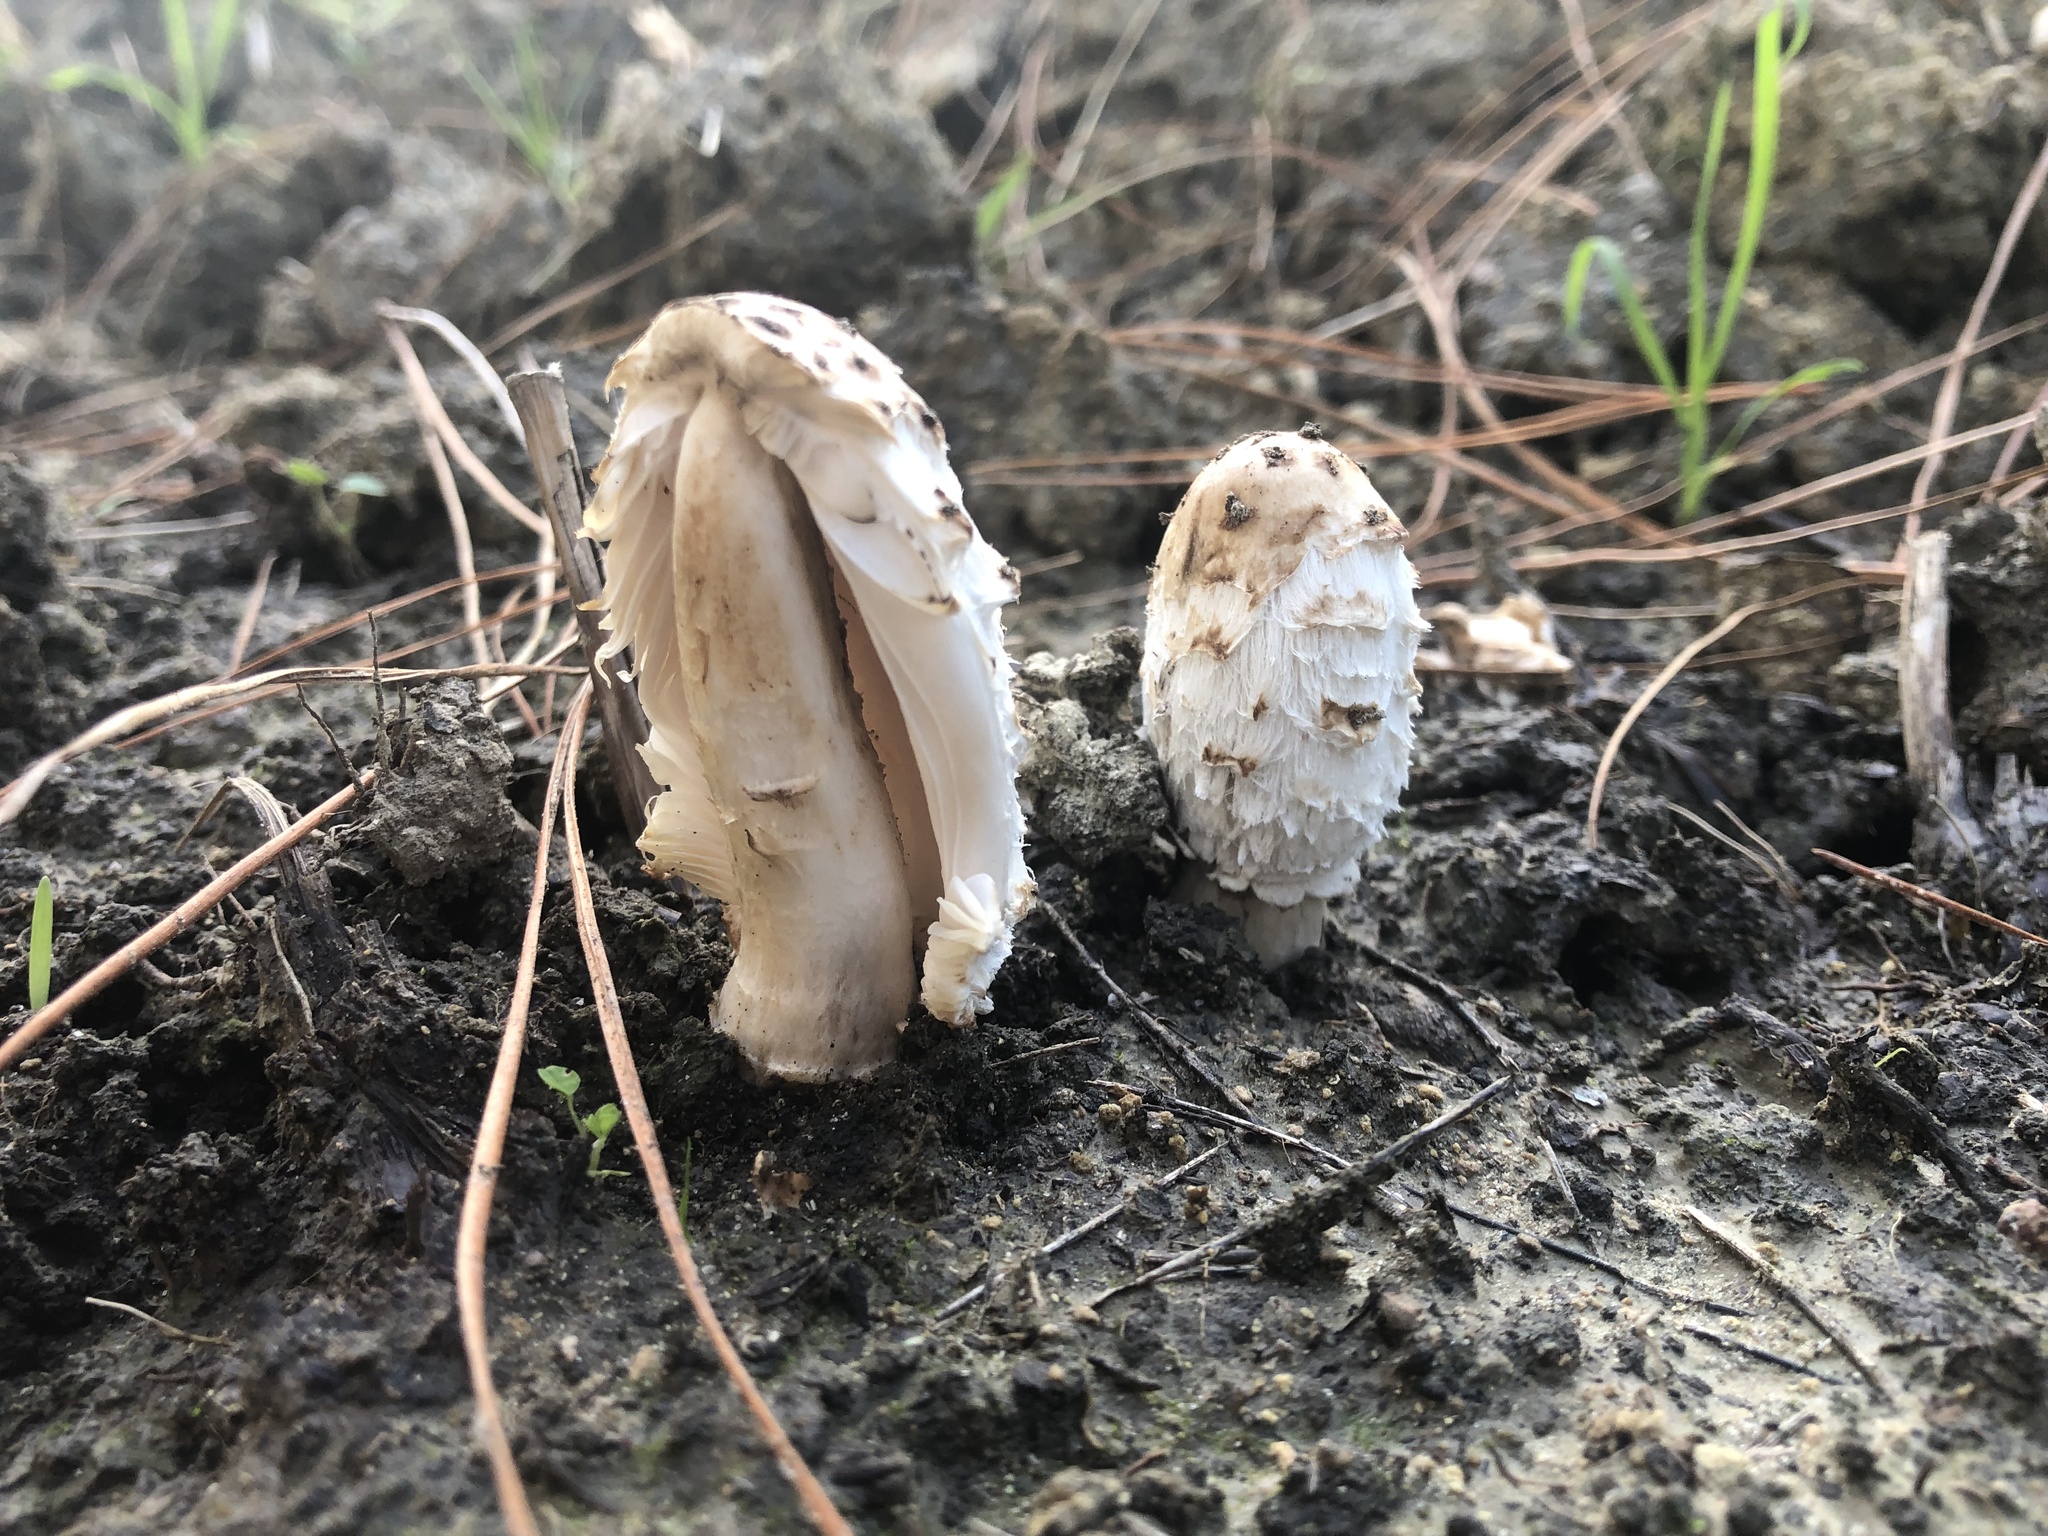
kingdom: Fungi
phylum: Basidiomycota
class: Agaricomycetes
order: Agaricales
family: Agaricaceae
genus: Coprinus
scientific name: Coprinus comatus
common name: Lawyer's wig
